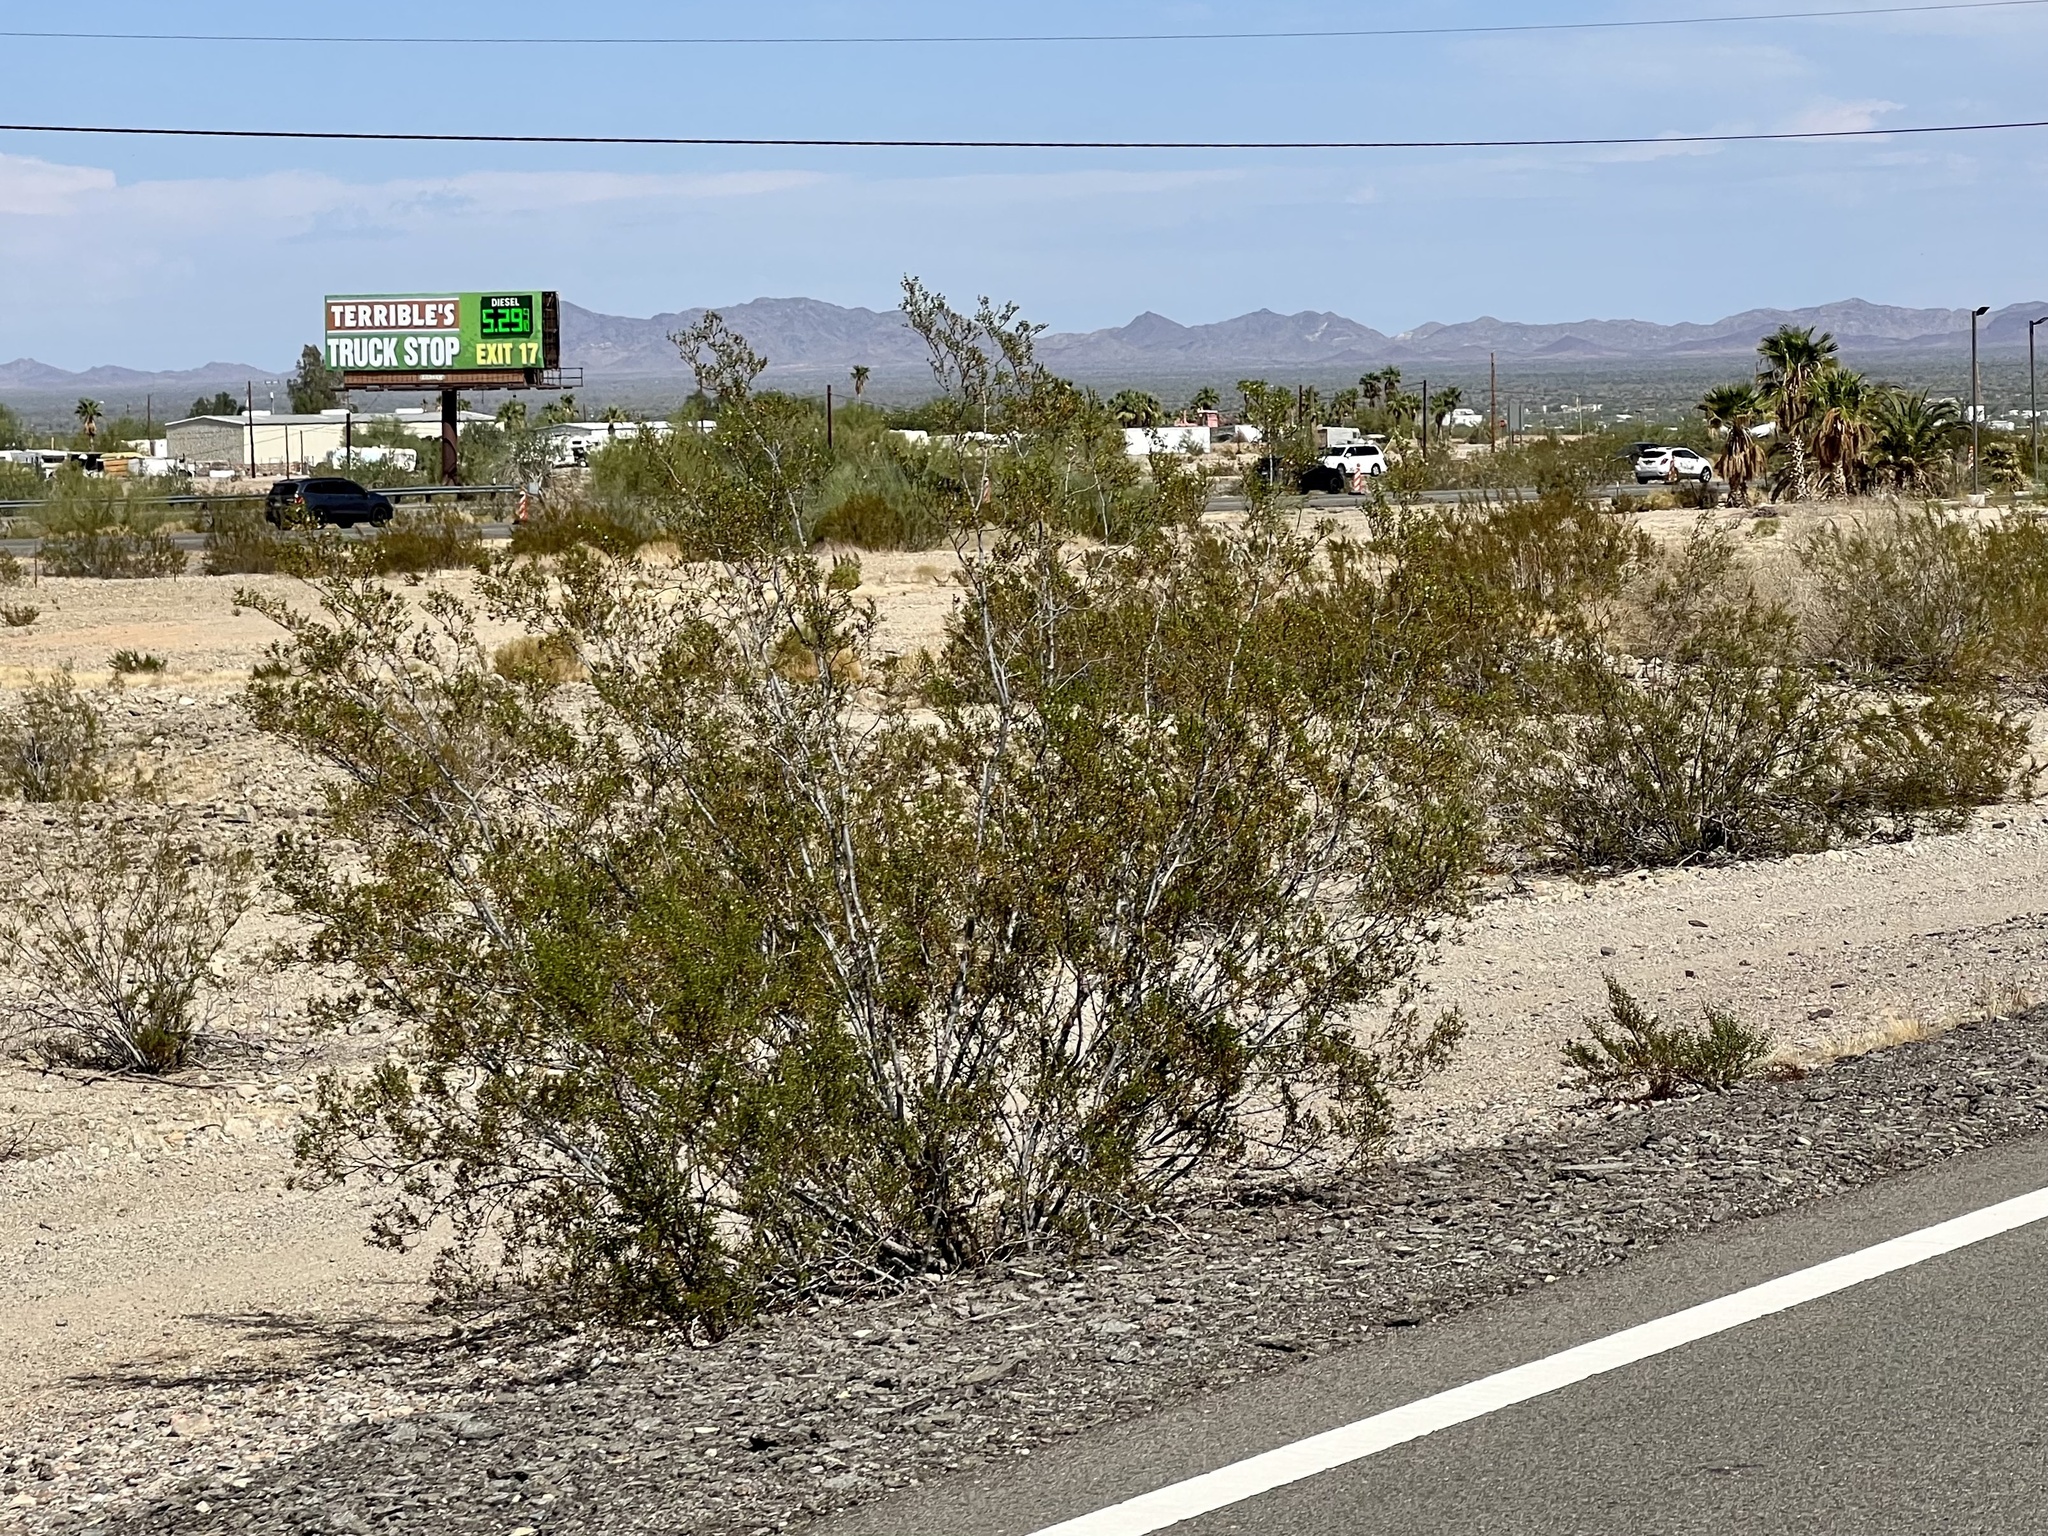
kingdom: Plantae
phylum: Tracheophyta
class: Magnoliopsida
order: Zygophyllales
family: Zygophyllaceae
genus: Larrea
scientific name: Larrea tridentata
